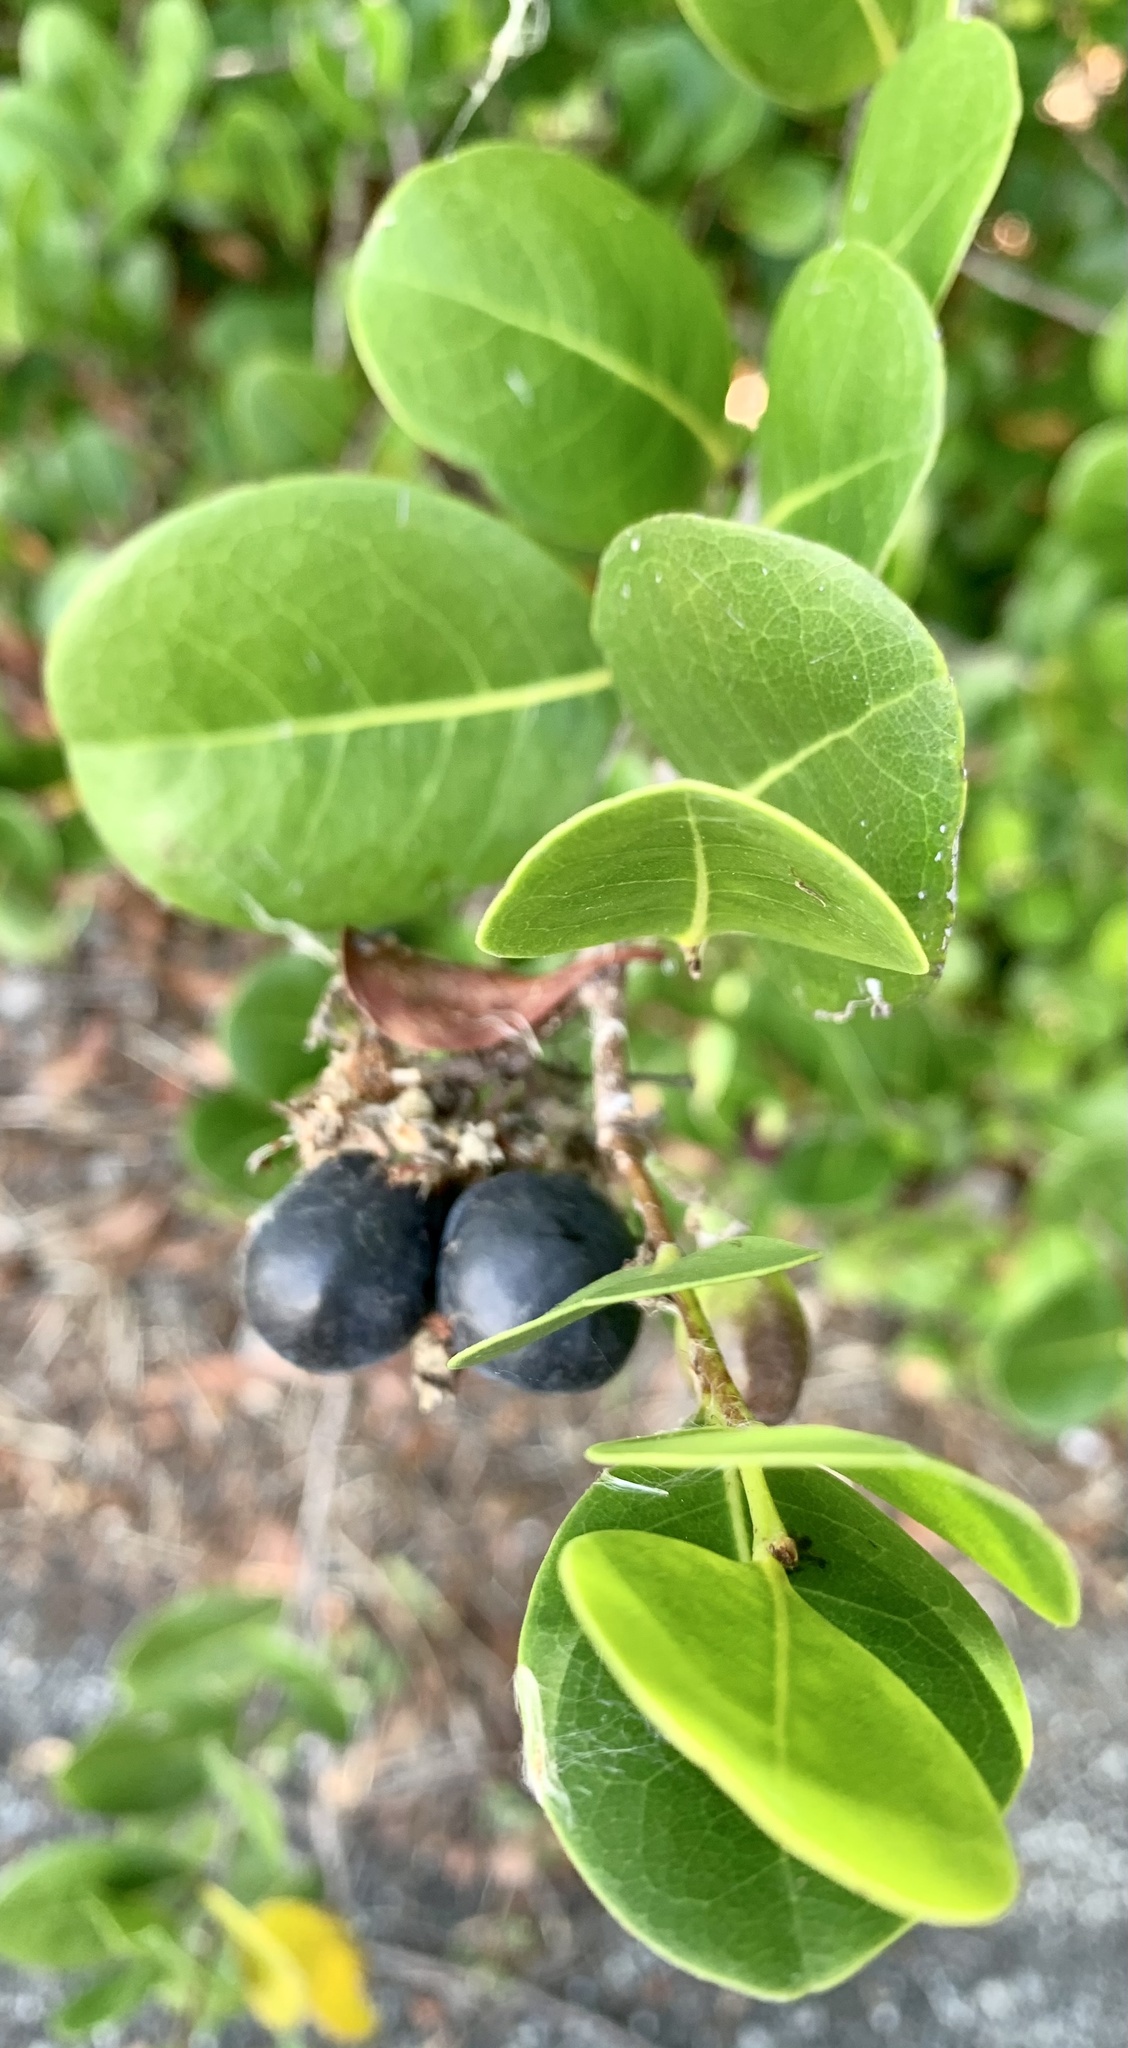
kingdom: Plantae
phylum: Tracheophyta
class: Magnoliopsida
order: Malpighiales
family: Chrysobalanaceae
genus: Chrysobalanus
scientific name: Chrysobalanus icaco
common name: Coco plum
